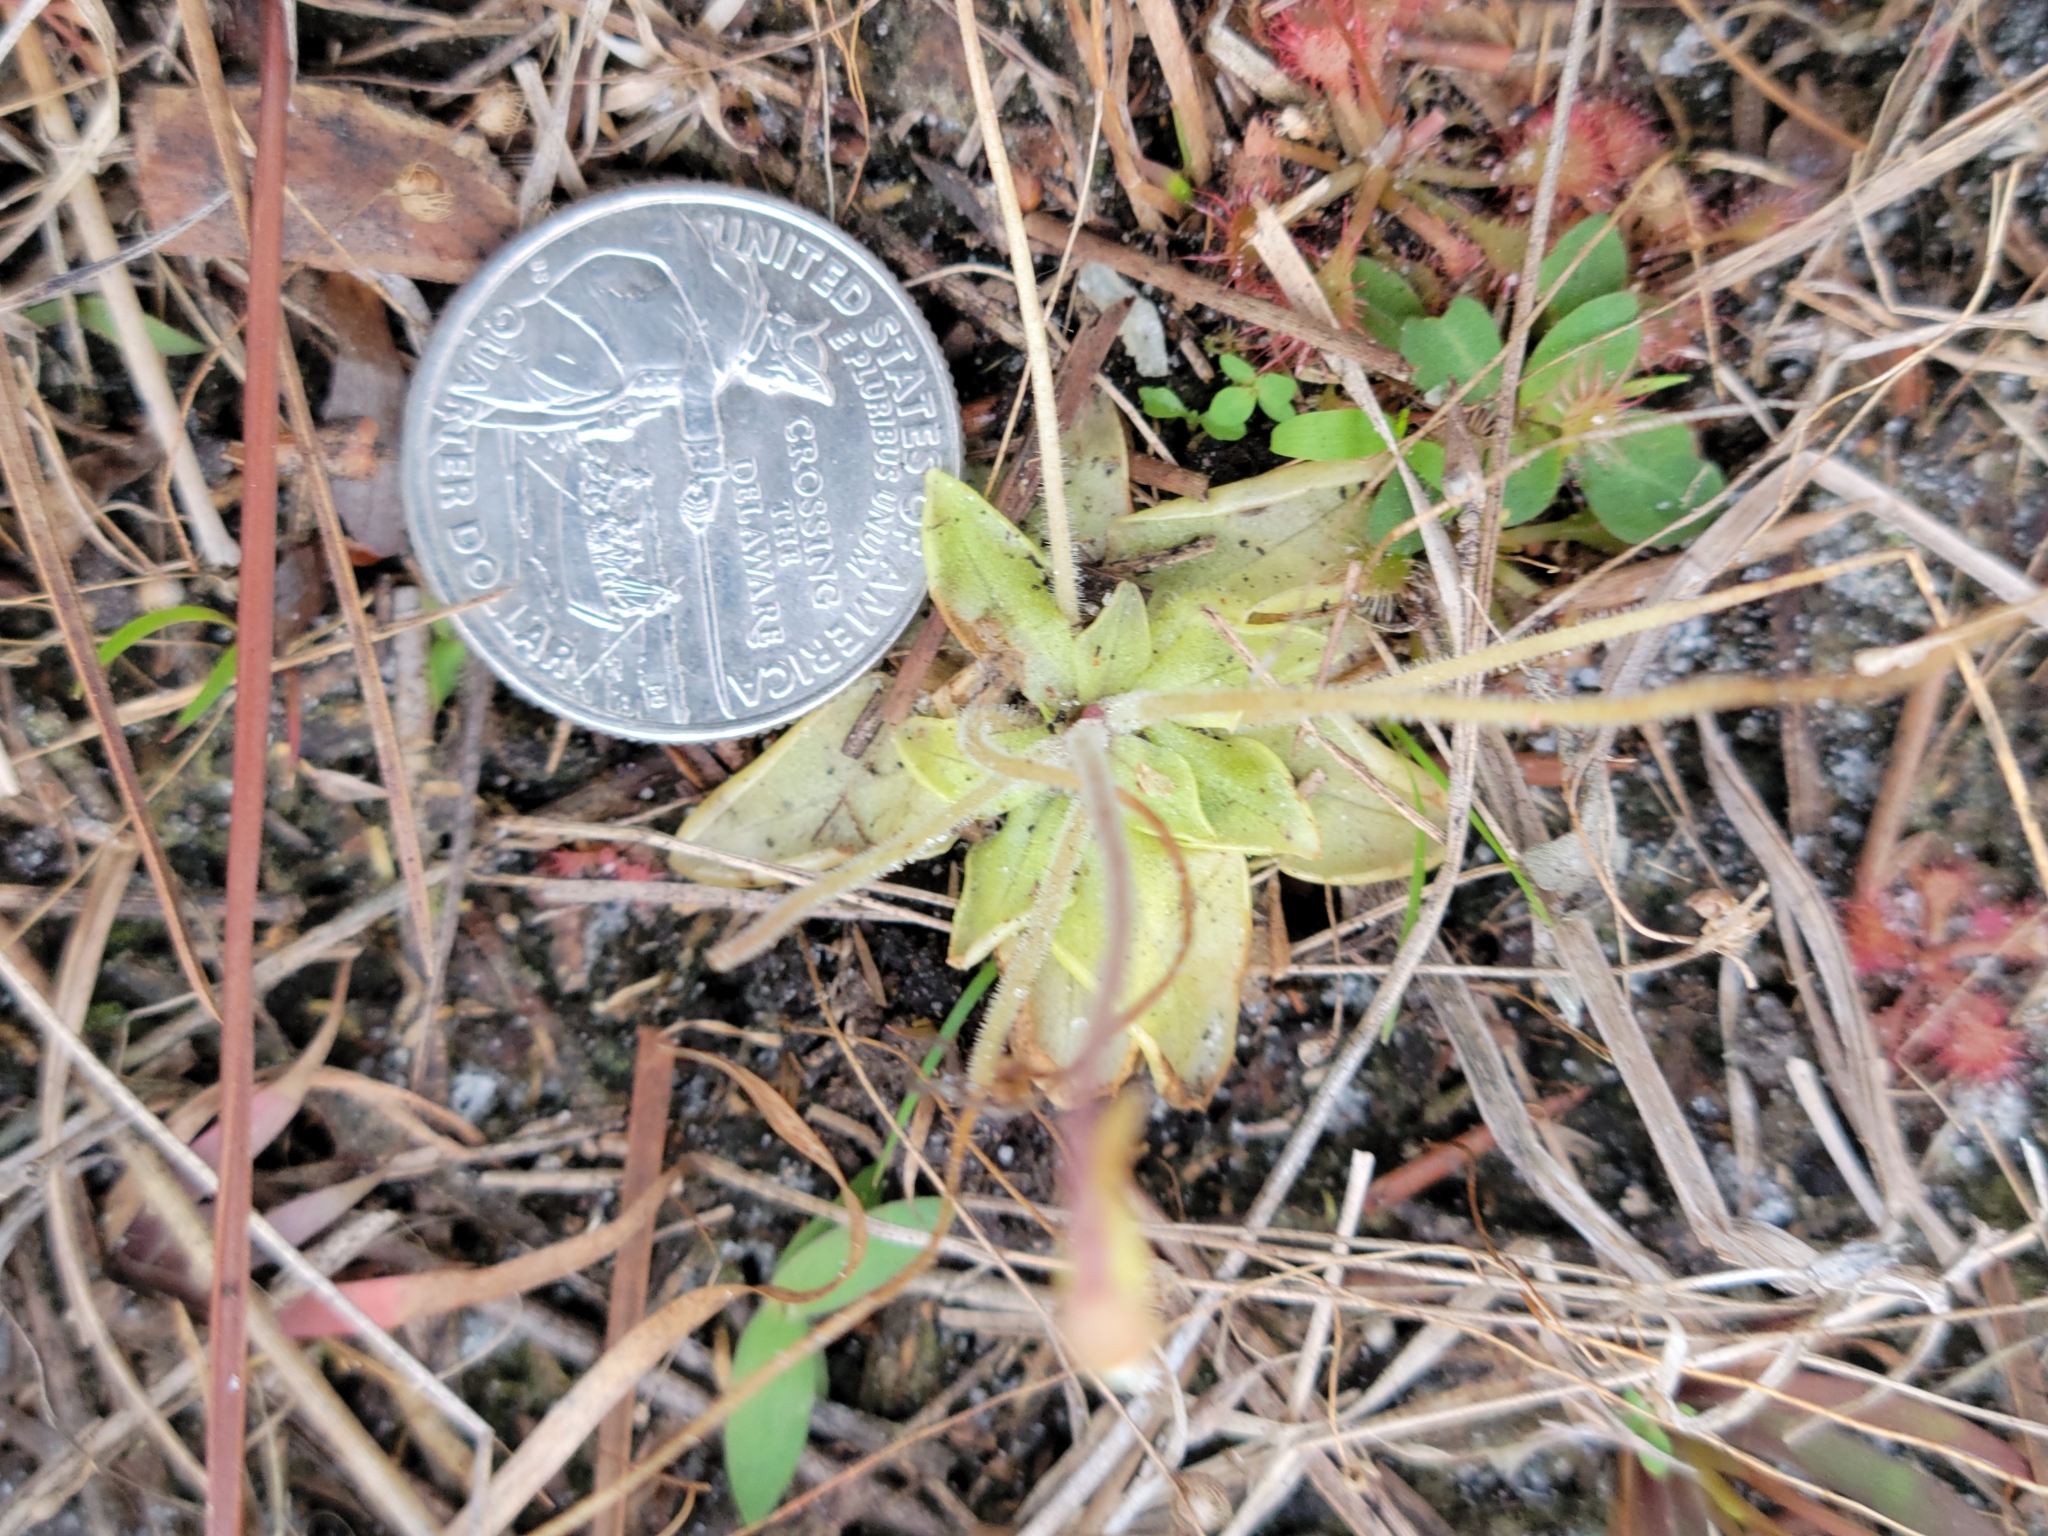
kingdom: Plantae
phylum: Tracheophyta
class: Magnoliopsida
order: Lamiales
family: Lentibulariaceae
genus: Pinguicula
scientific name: Pinguicula pumila
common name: Small butterwort
